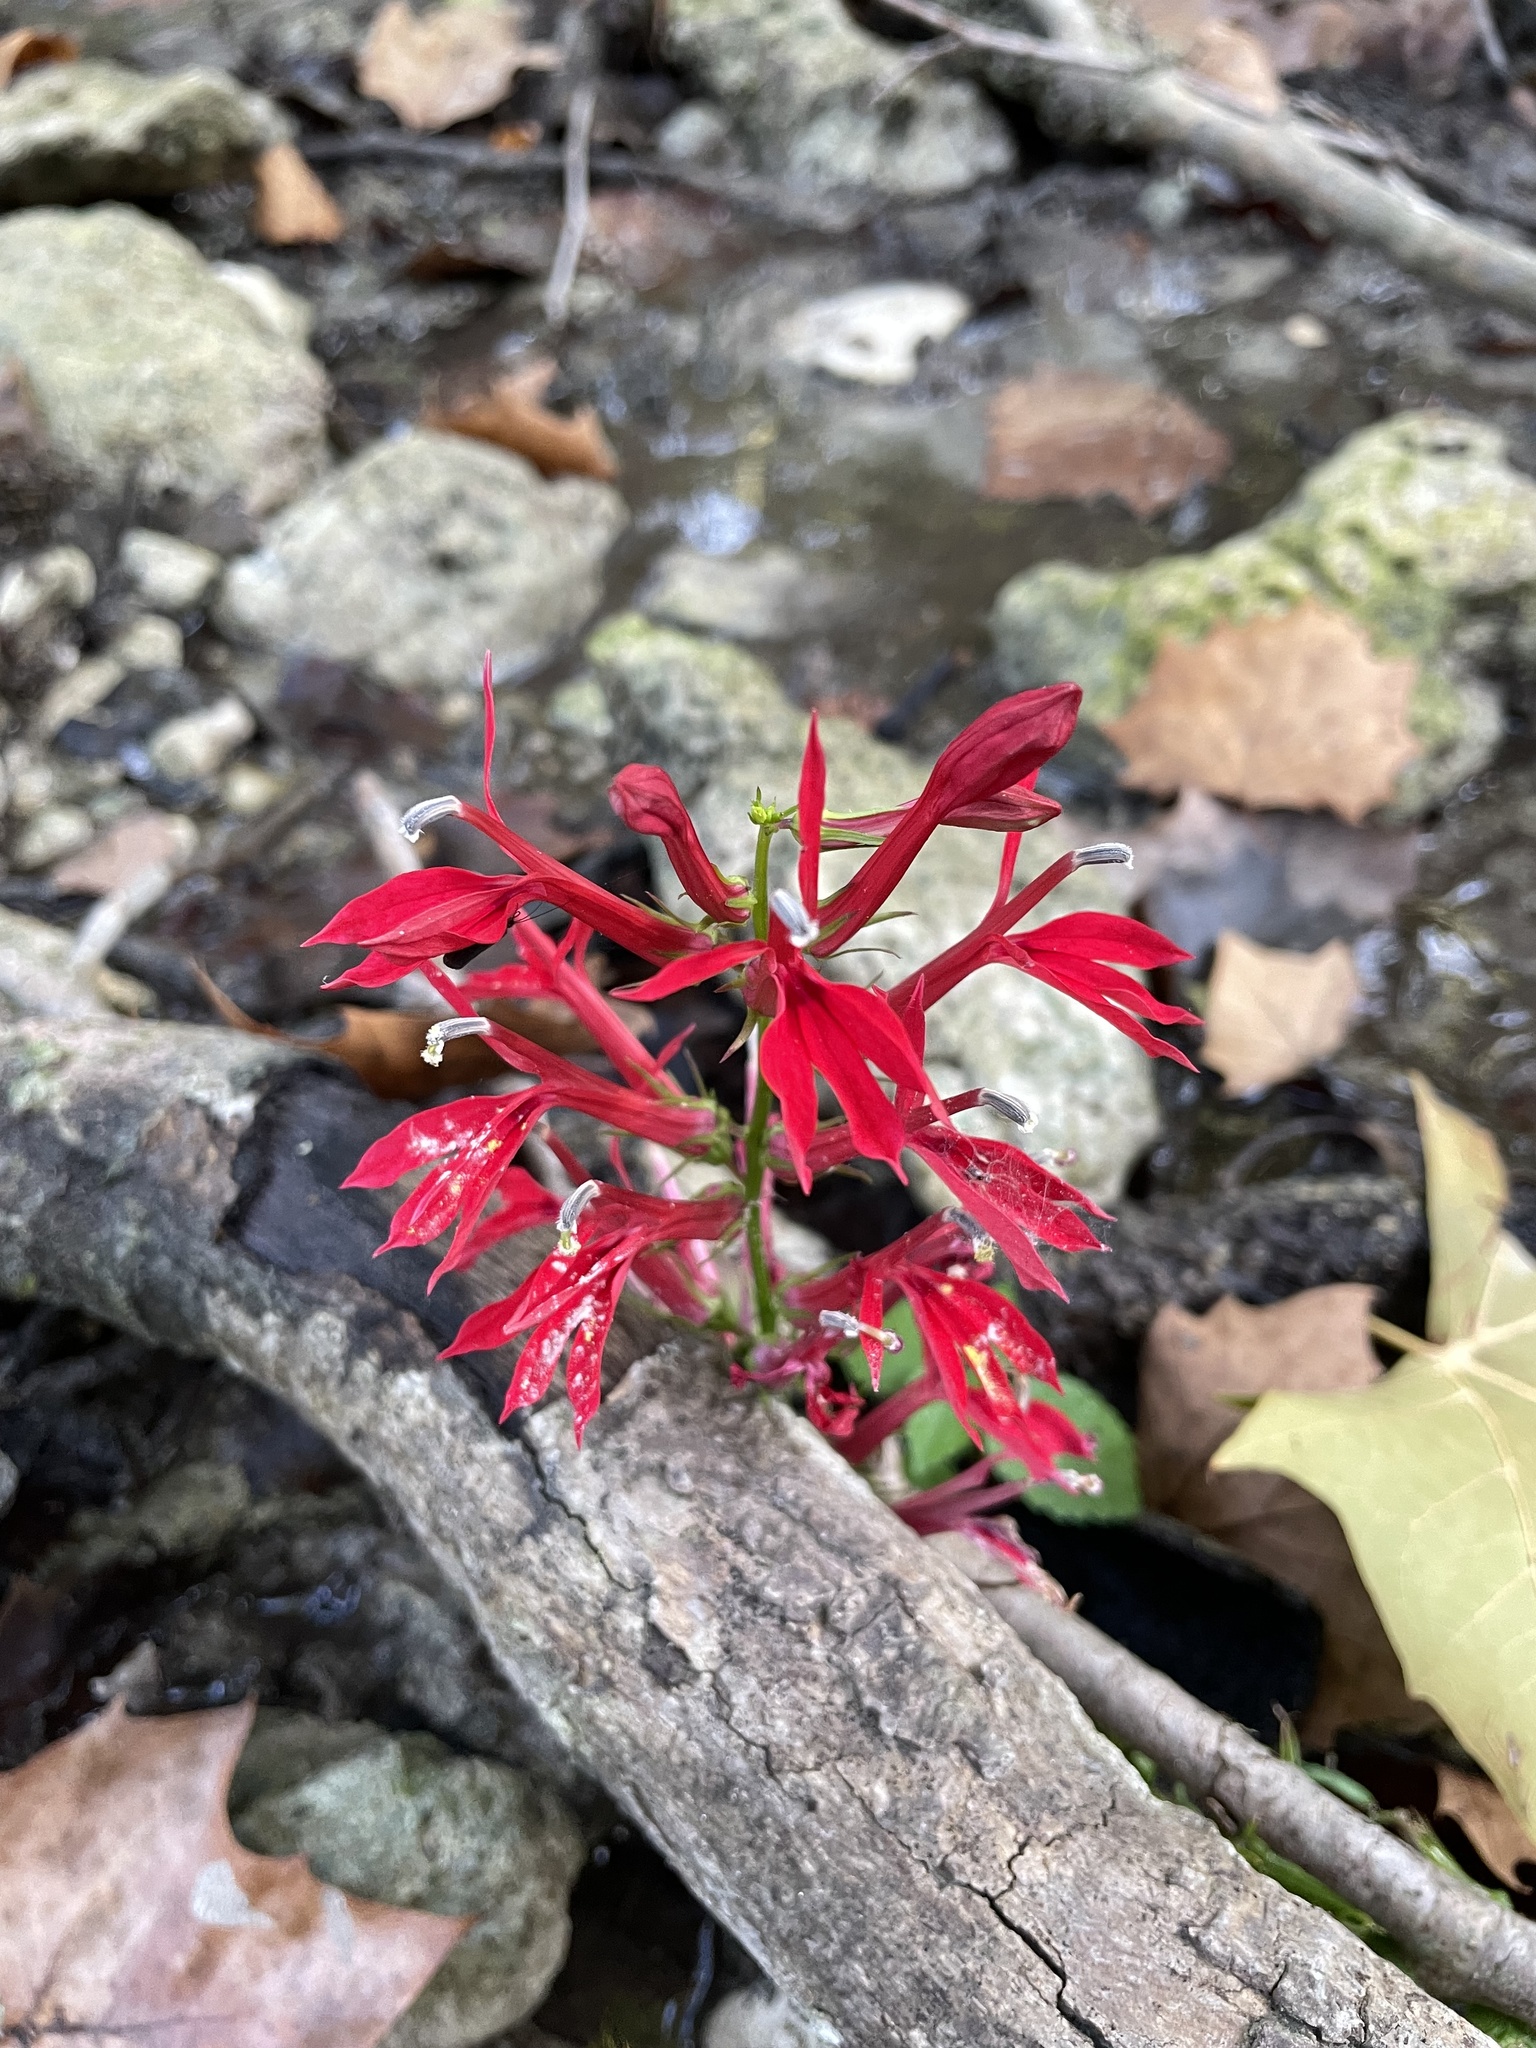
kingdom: Plantae
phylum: Tracheophyta
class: Magnoliopsida
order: Asterales
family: Campanulaceae
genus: Lobelia
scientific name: Lobelia cardinalis
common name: Cardinal flower
